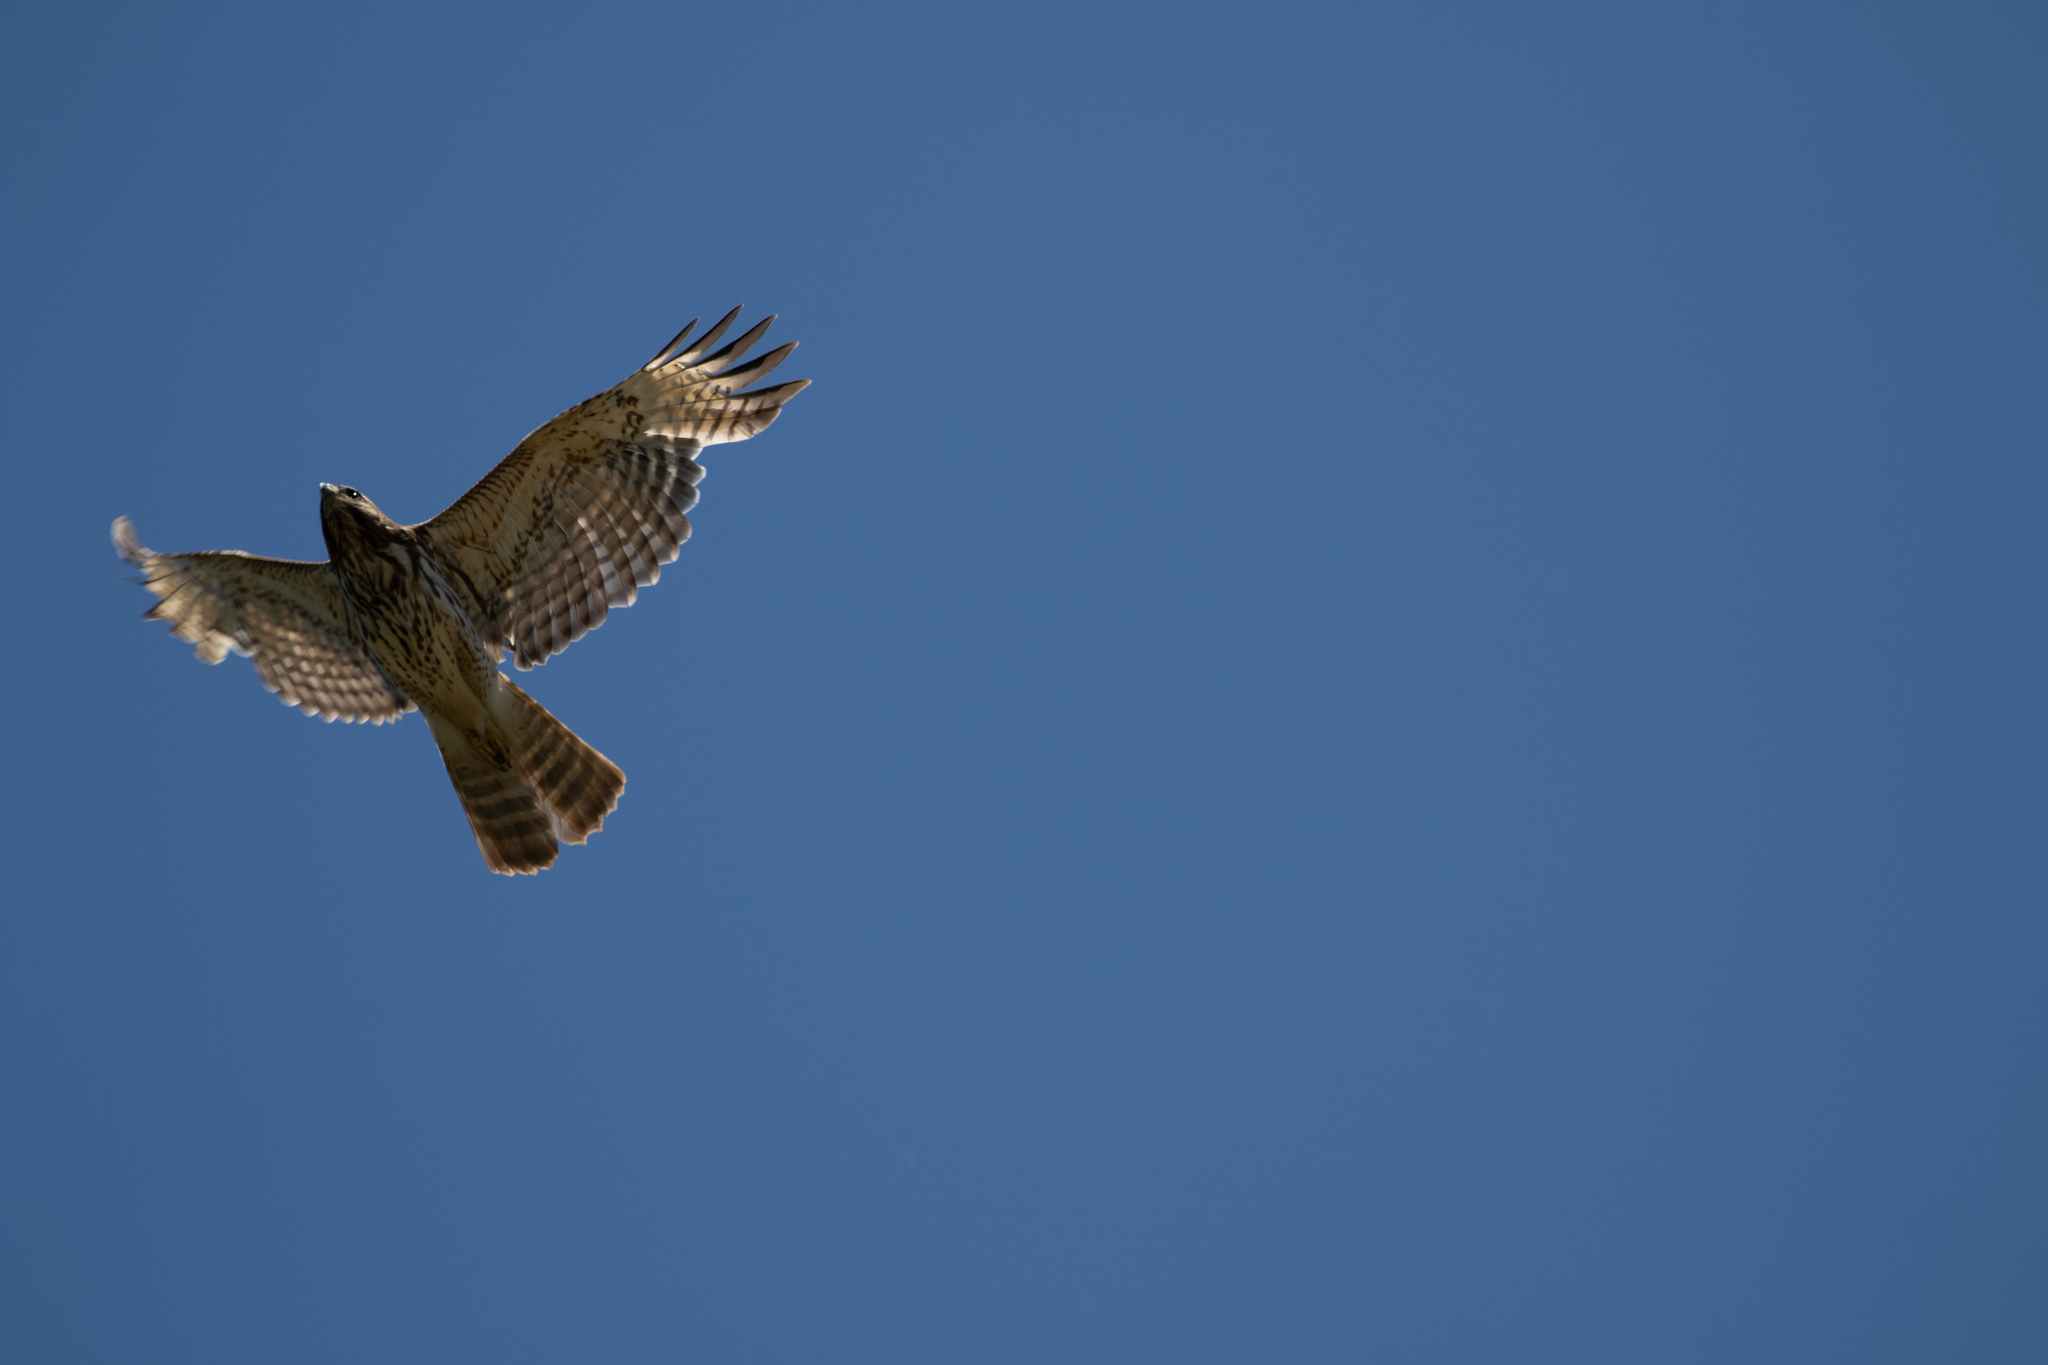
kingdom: Animalia
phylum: Chordata
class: Aves
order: Accipitriformes
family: Accipitridae
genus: Buteo
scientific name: Buteo lineatus
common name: Red-shouldered hawk
